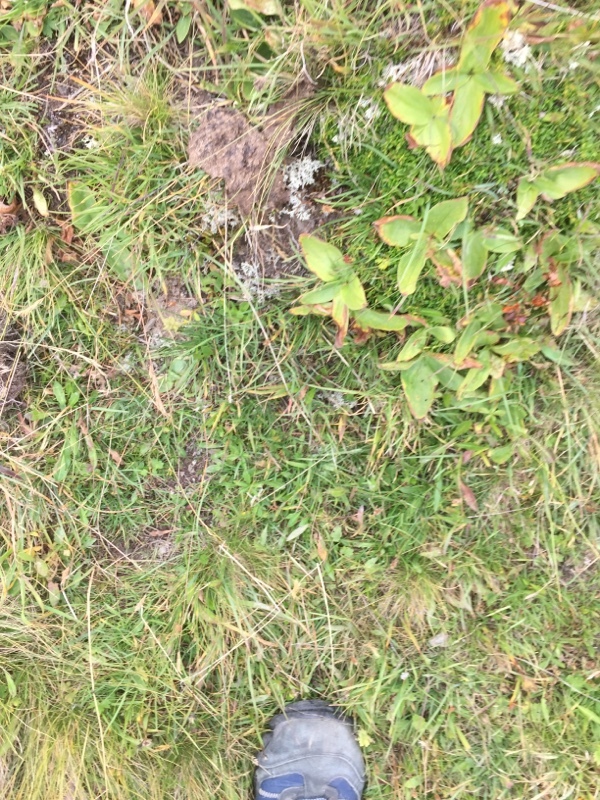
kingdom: Plantae
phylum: Tracheophyta
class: Magnoliopsida
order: Asterales
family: Asteraceae
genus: Arnica
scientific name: Arnica montana
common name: Leopard's bane
